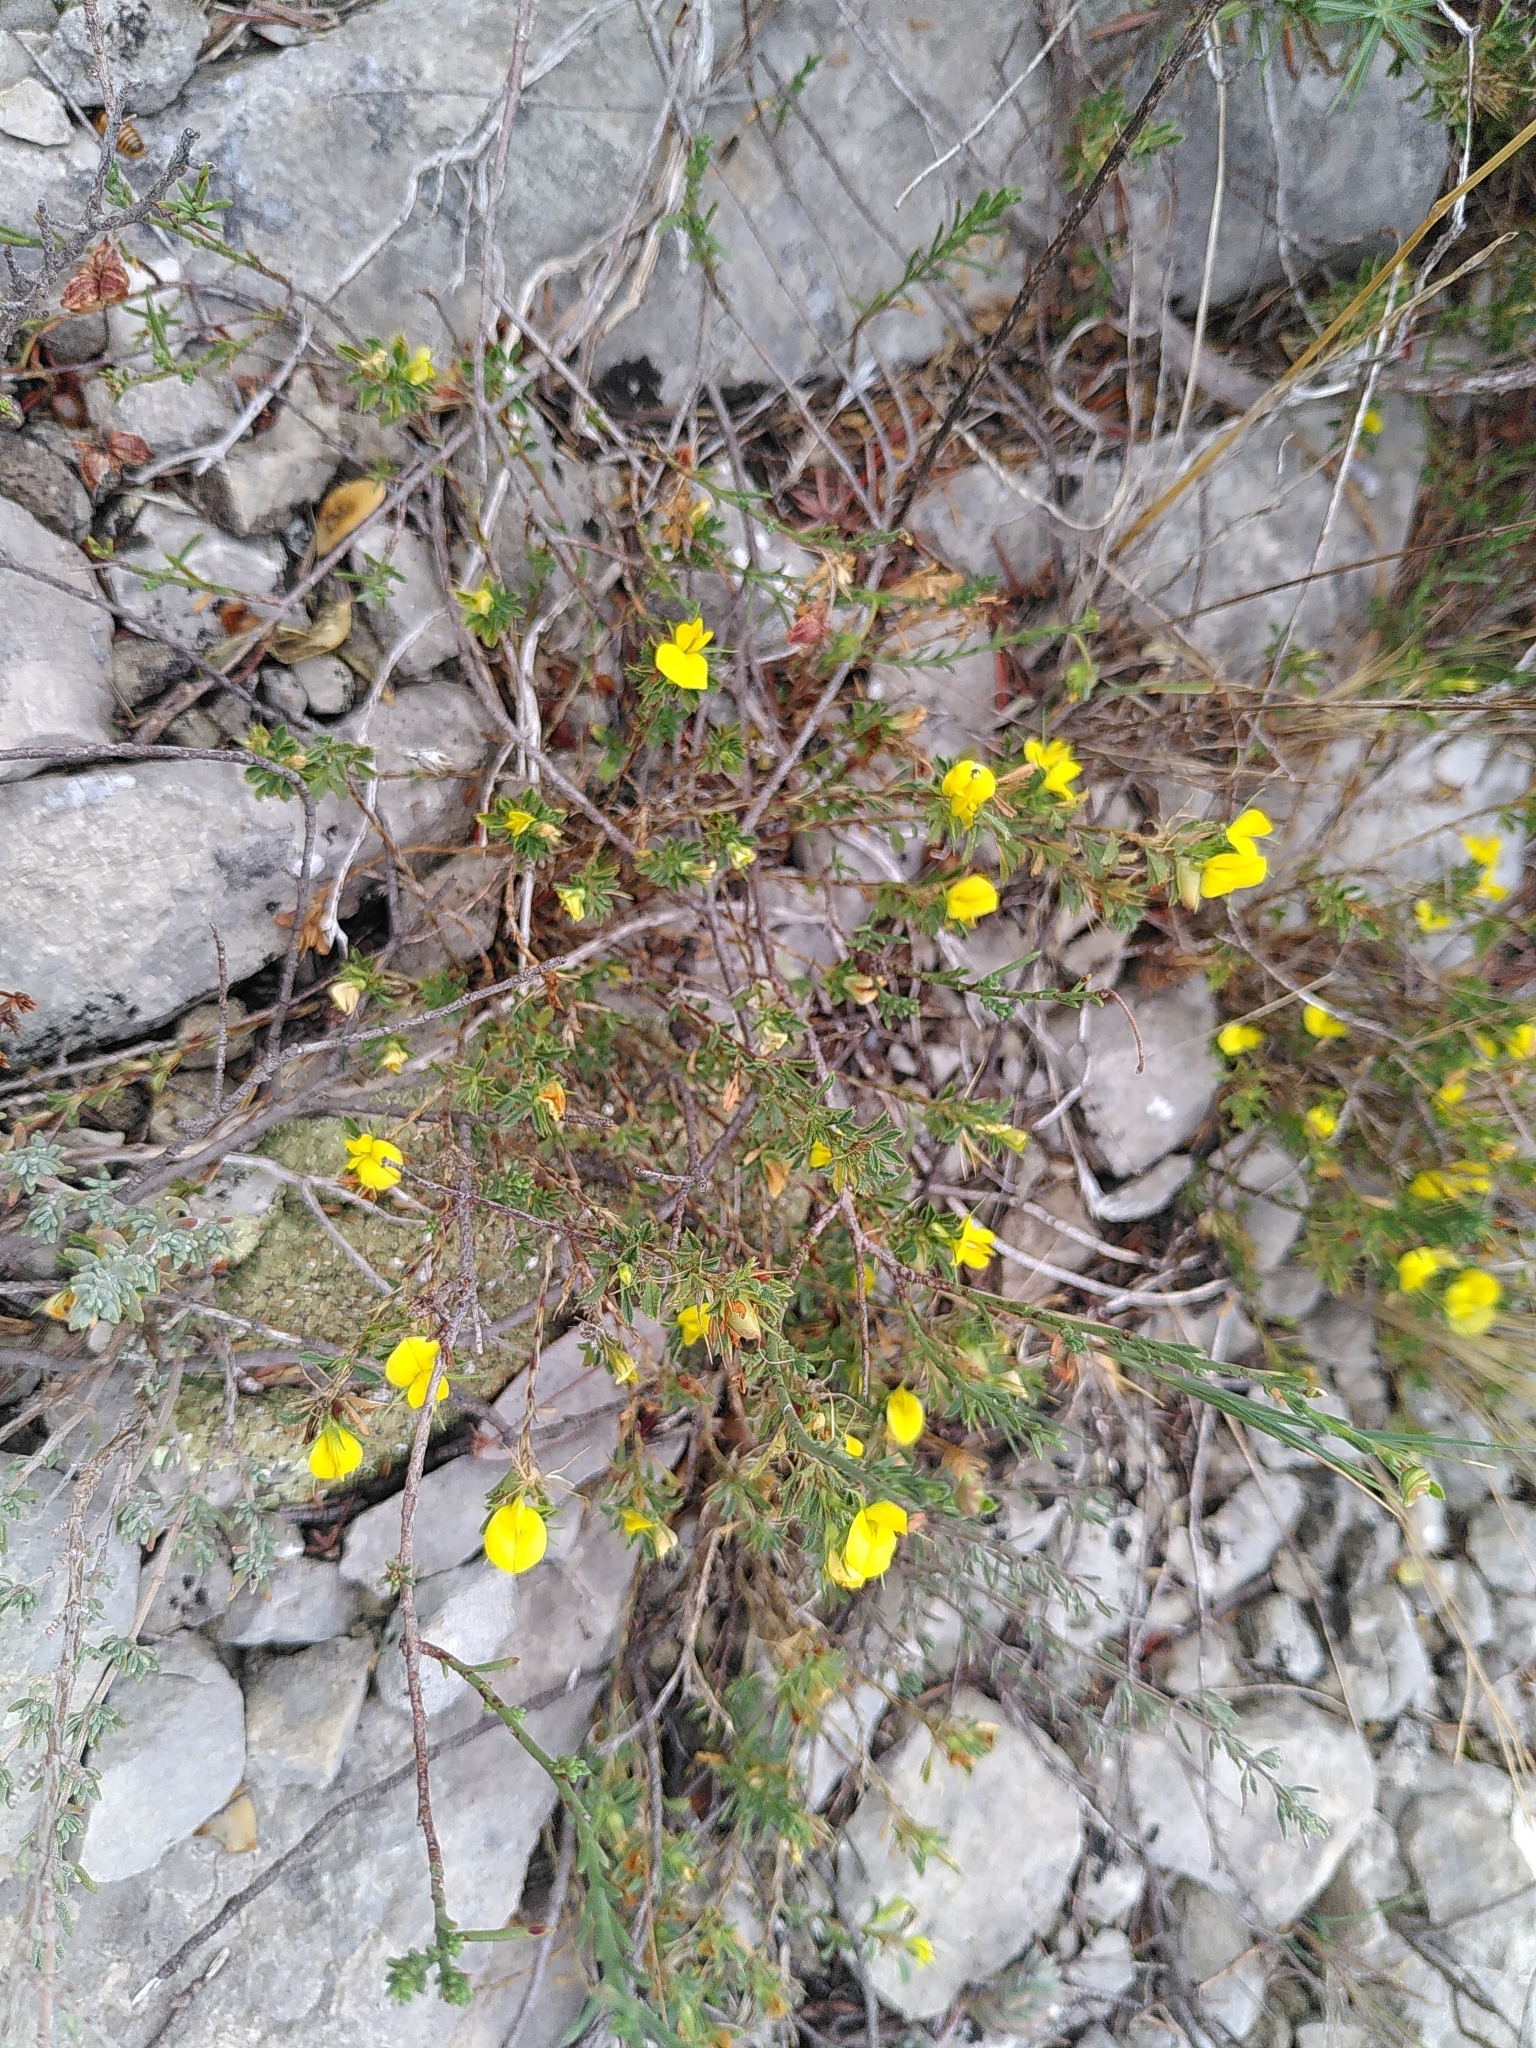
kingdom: Plantae
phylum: Tracheophyta
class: Magnoliopsida
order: Fabales
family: Fabaceae
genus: Ononis
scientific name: Ononis minutissima
